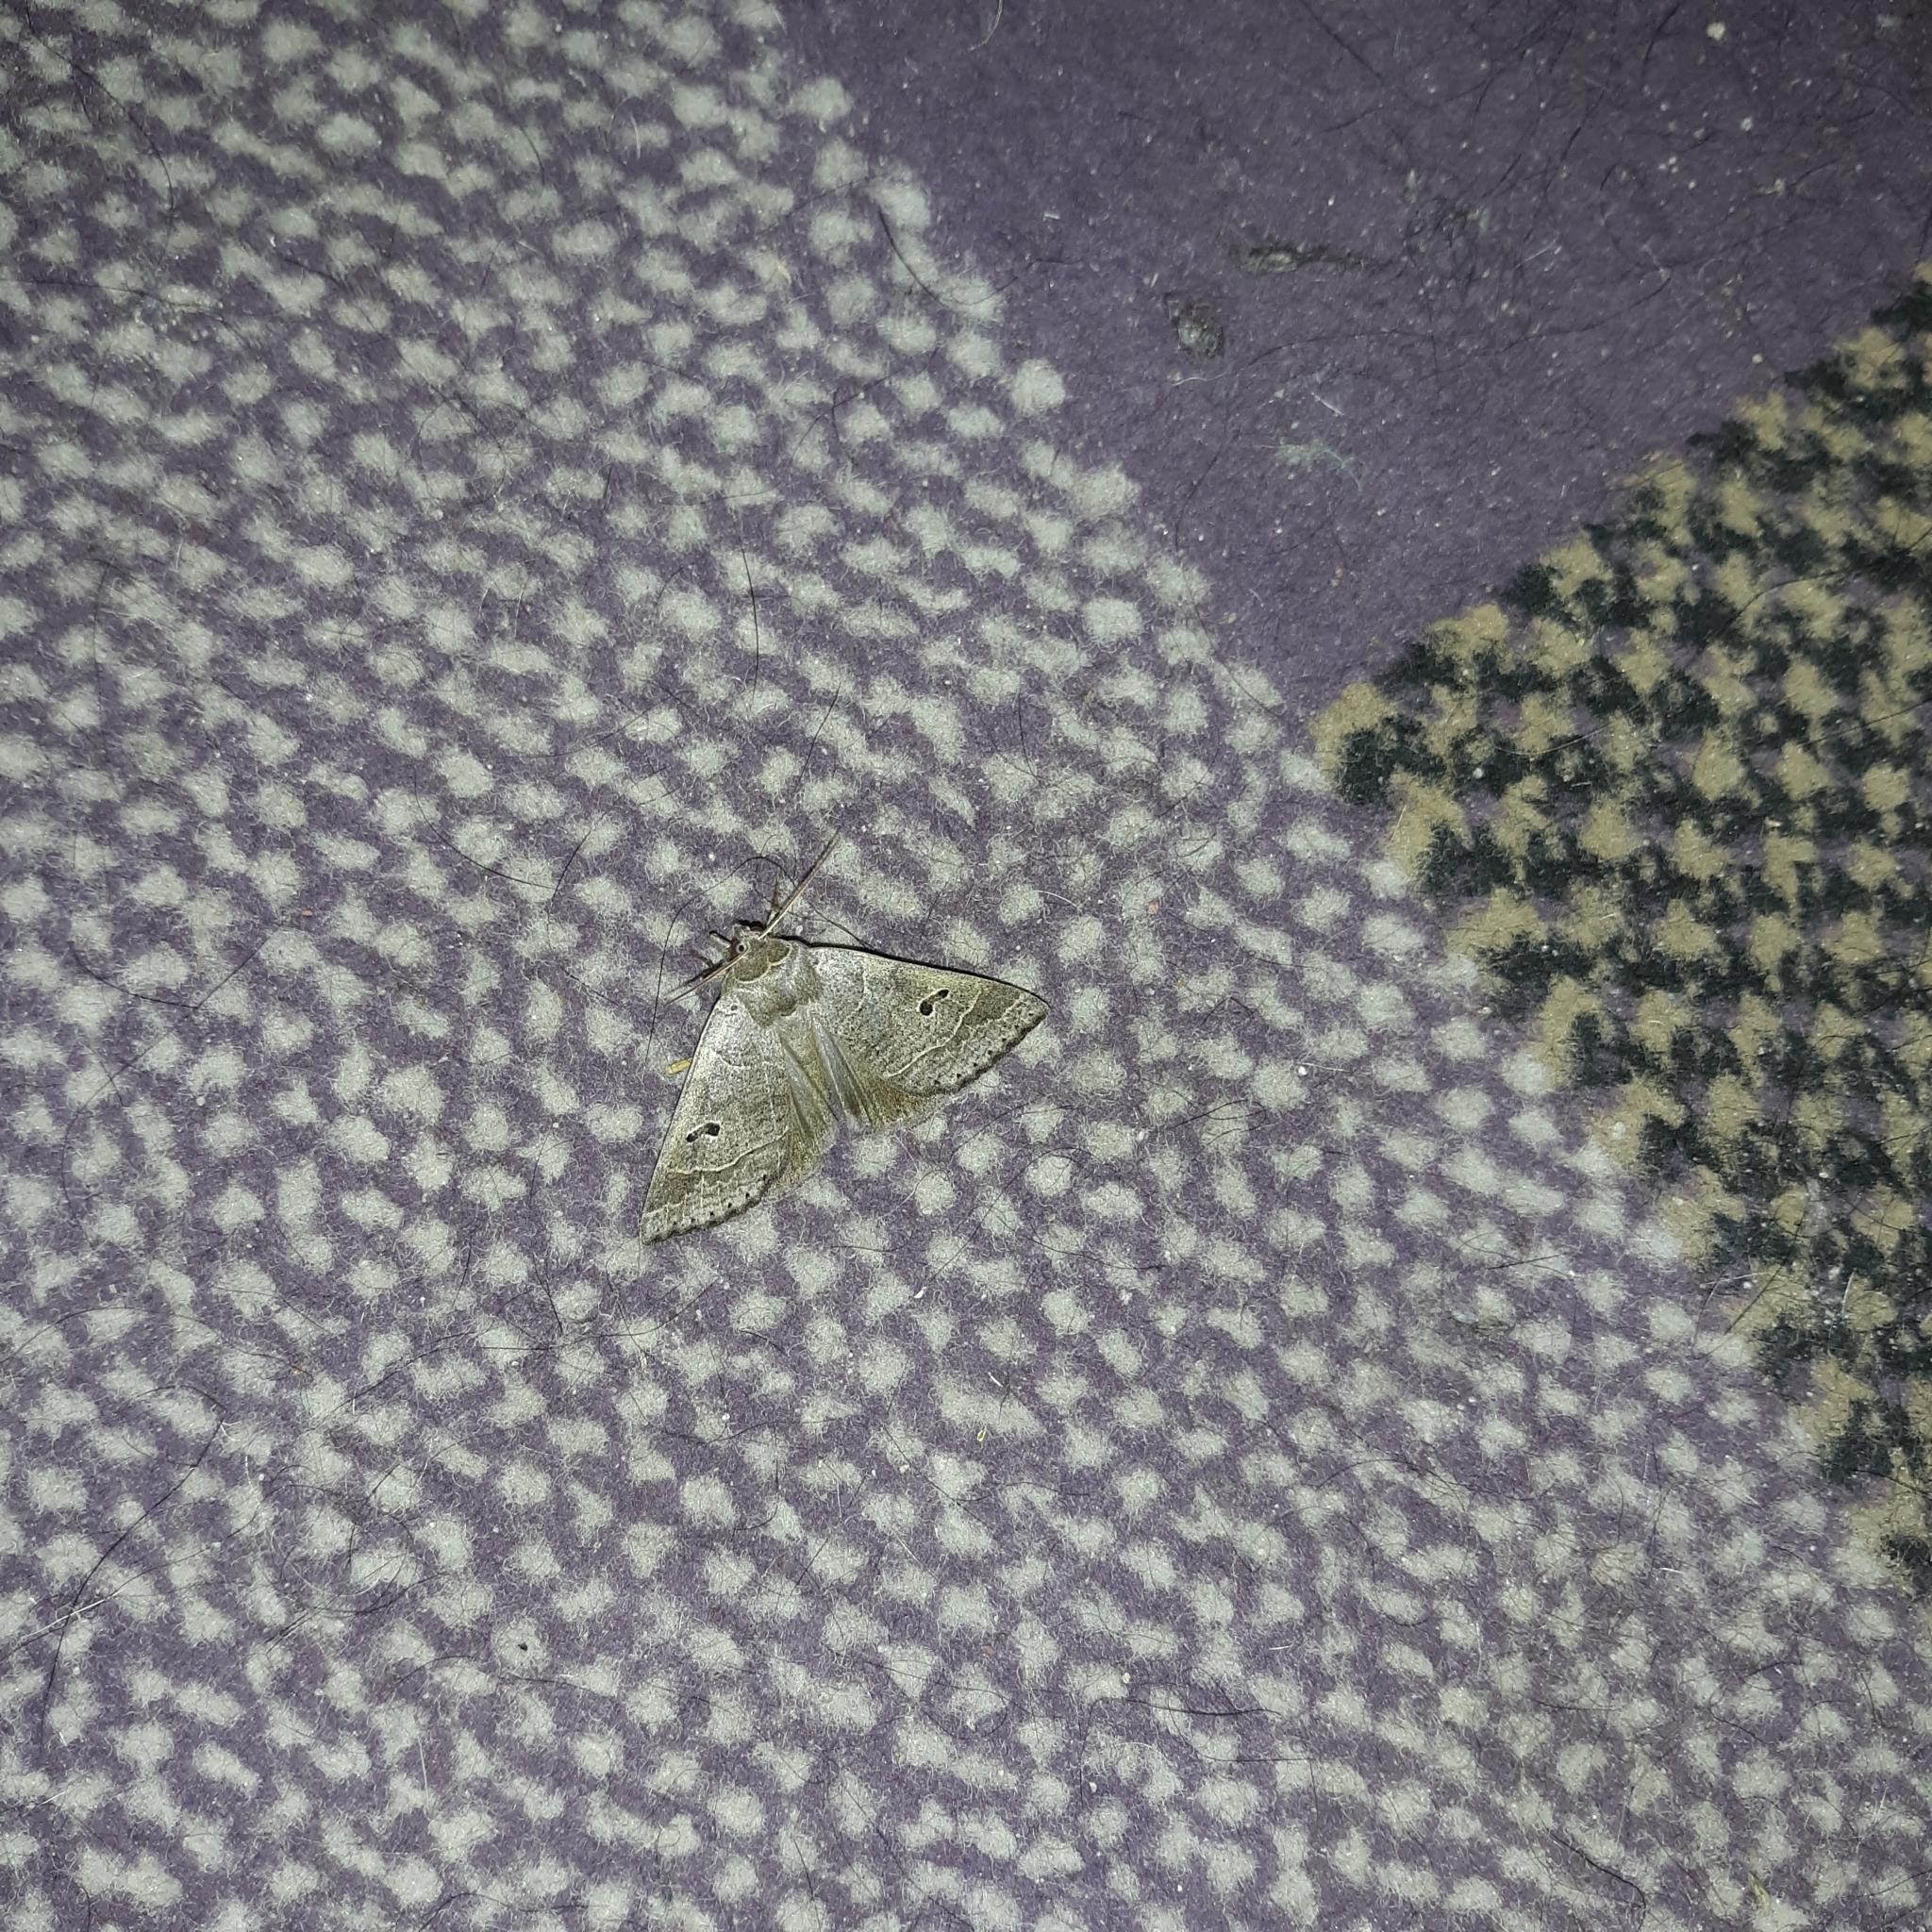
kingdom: Animalia
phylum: Arthropoda
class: Insecta
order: Lepidoptera
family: Erebidae
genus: Phoberia
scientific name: Phoberia atomaris
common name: Common oak moth
